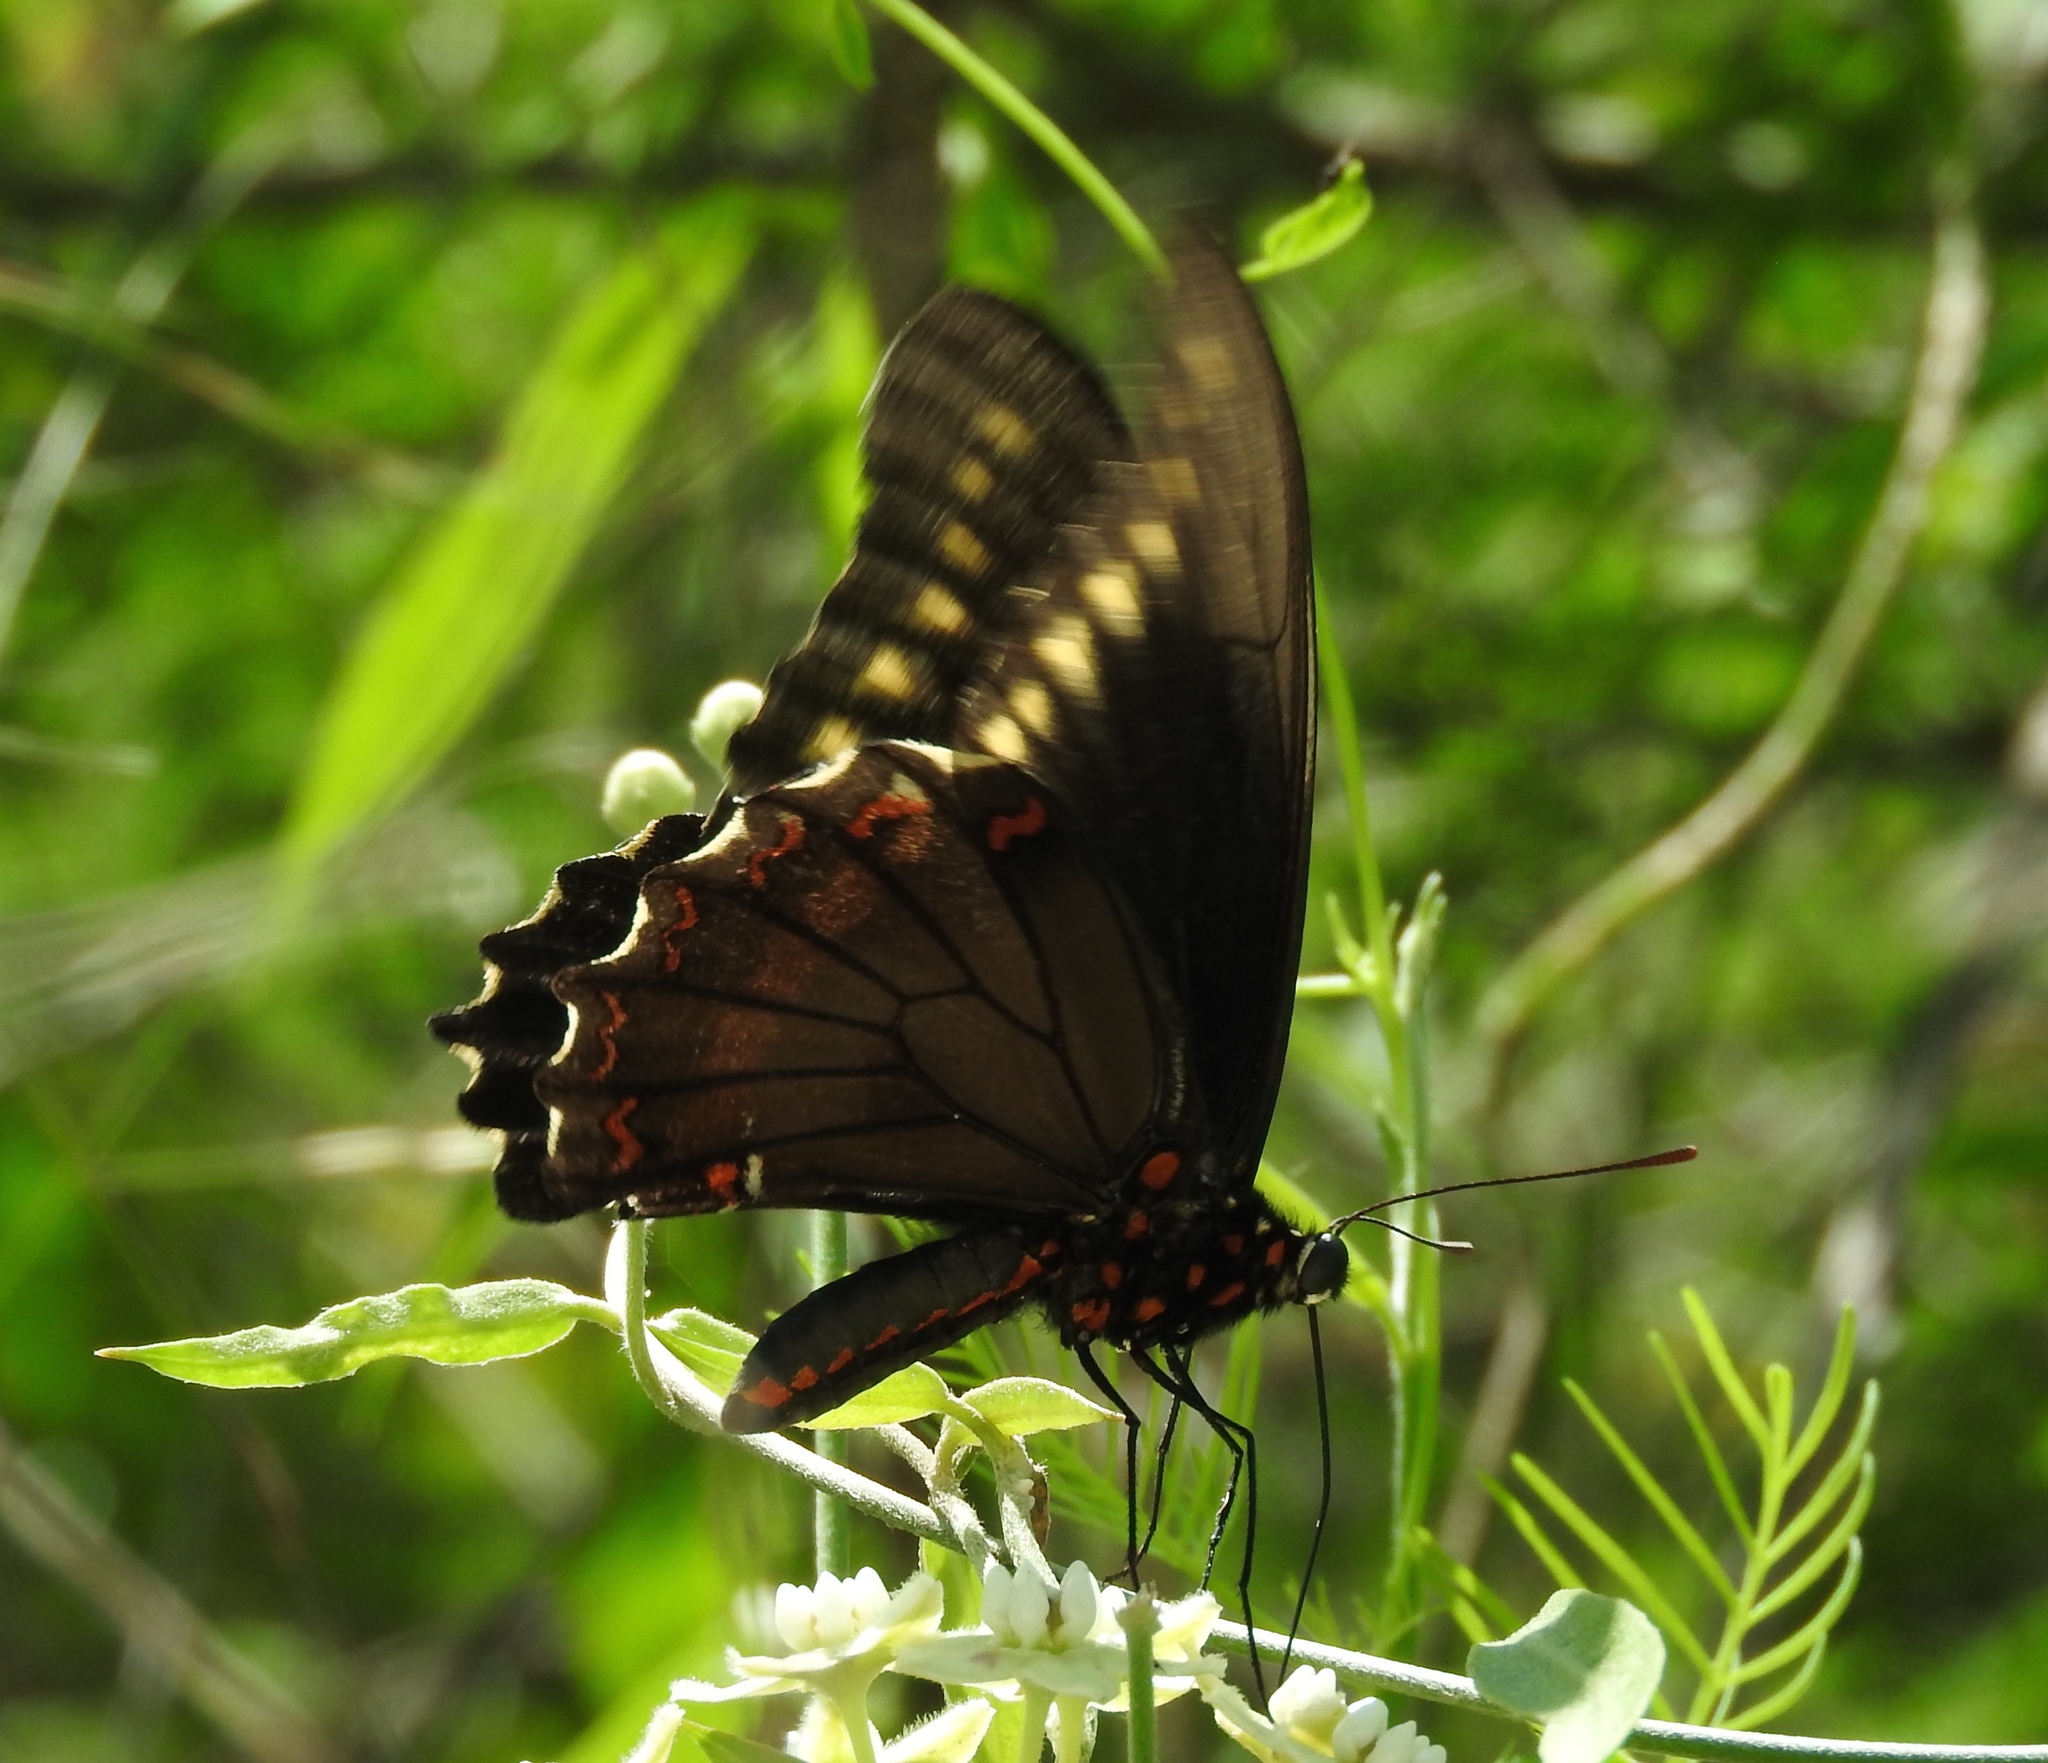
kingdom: Animalia
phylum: Arthropoda
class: Insecta
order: Lepidoptera
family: Papilionidae
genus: Battus
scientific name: Battus polydamas
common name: Polydamas swallowtail
